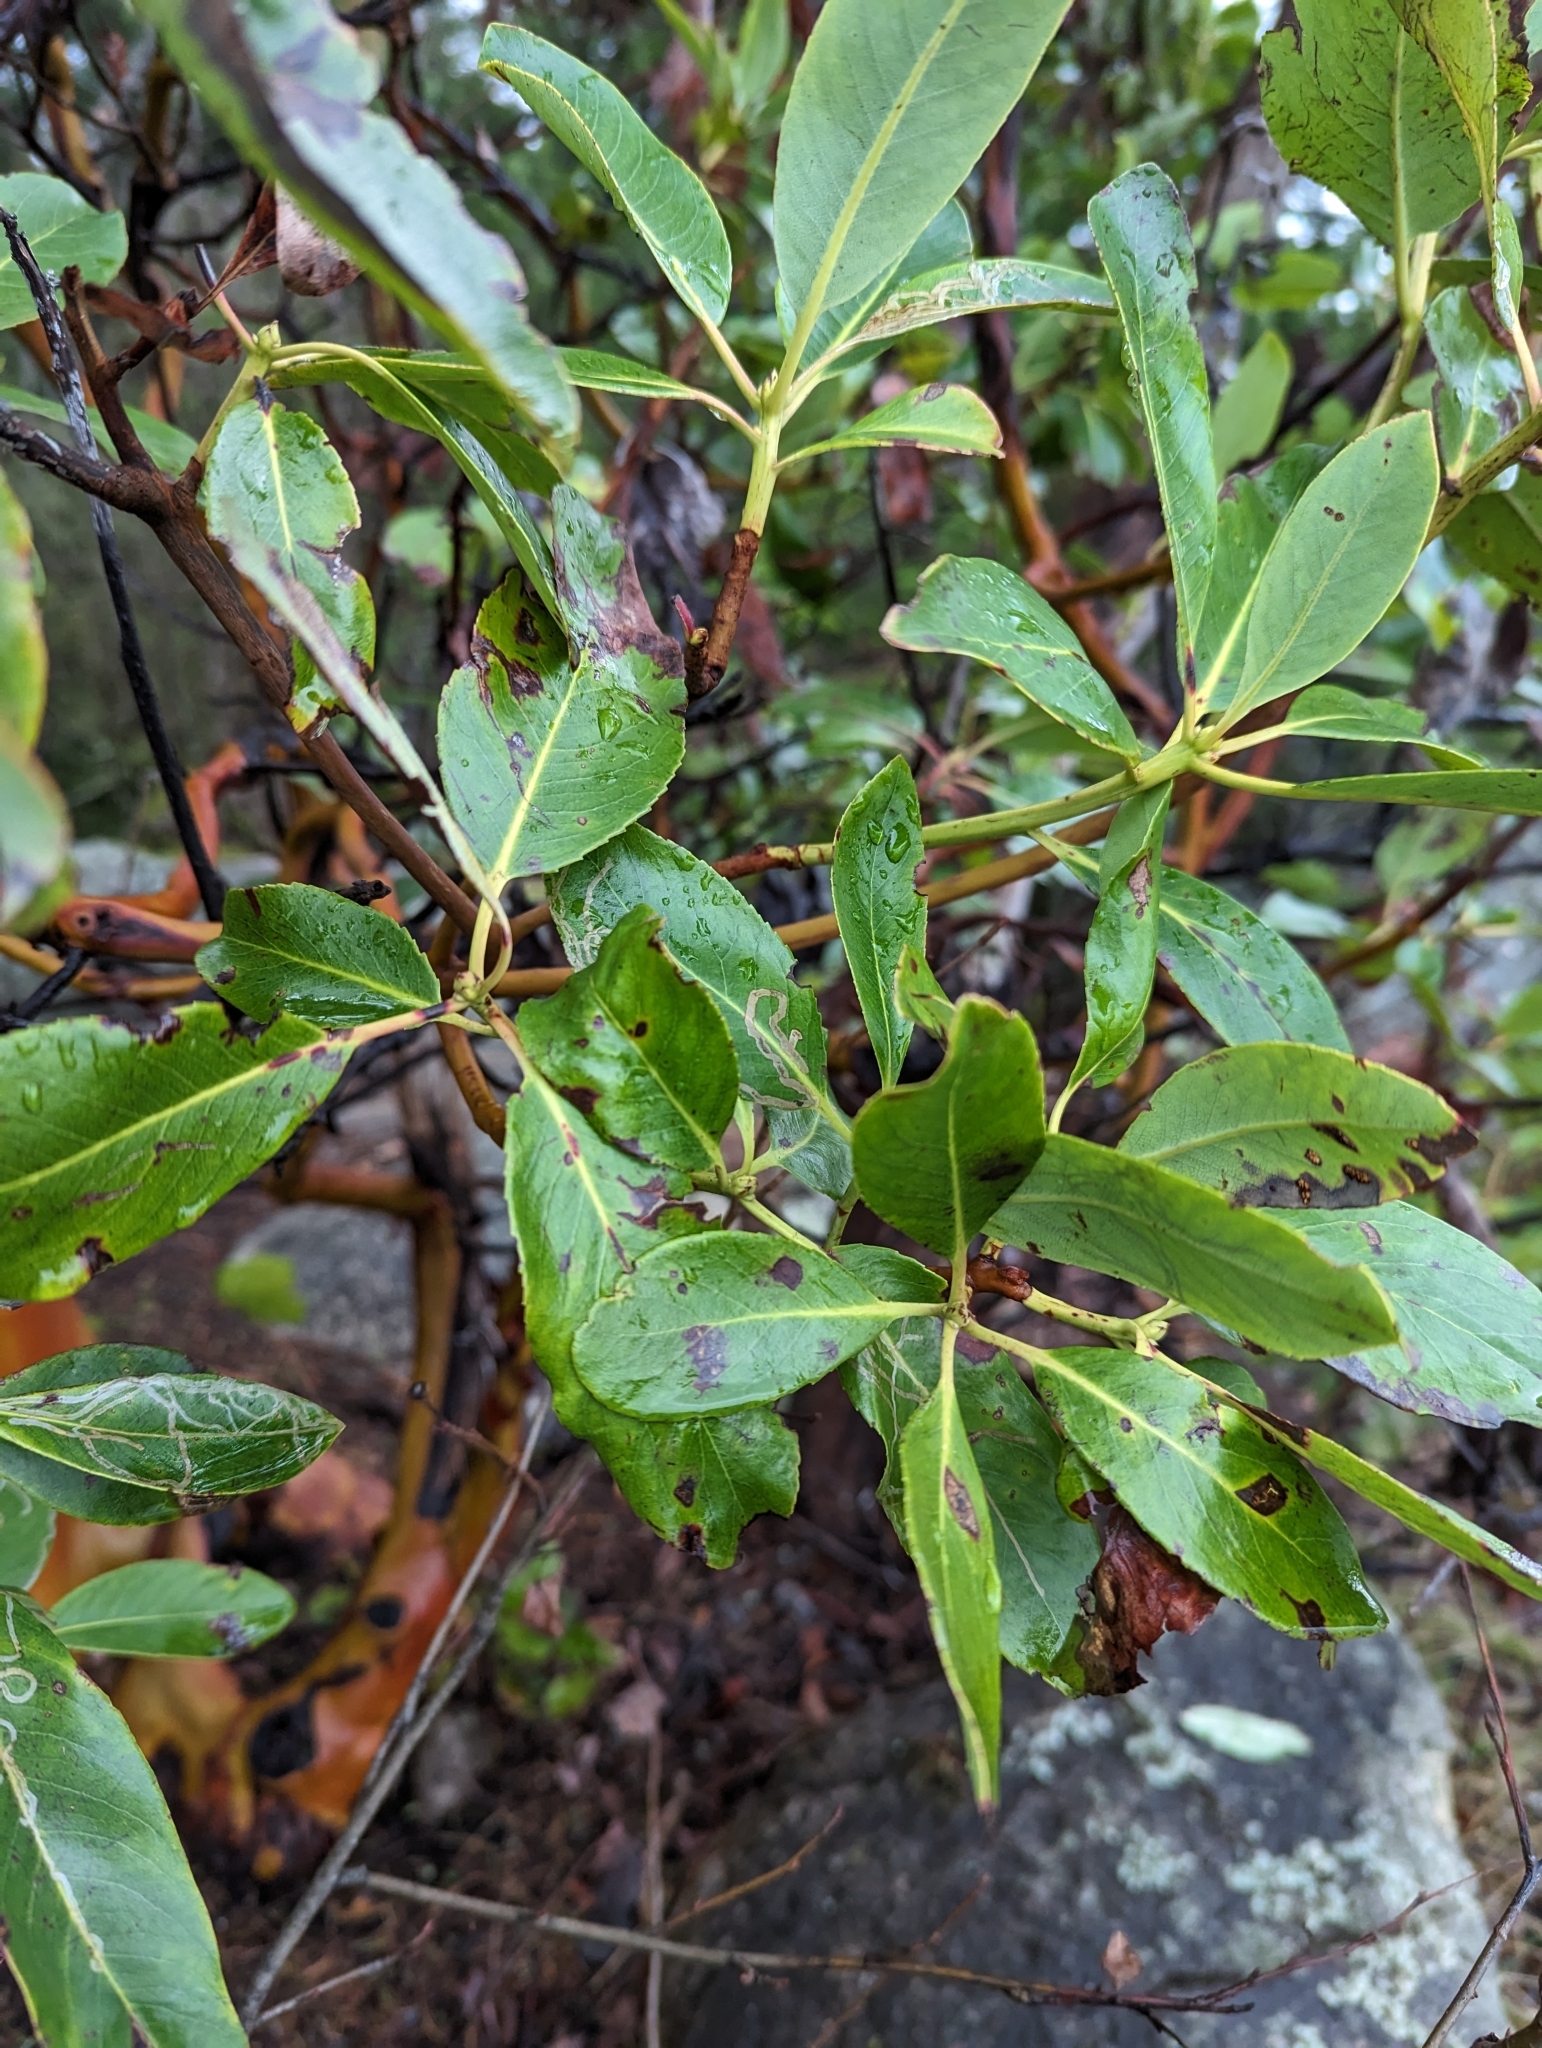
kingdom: Plantae
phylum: Tracheophyta
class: Magnoliopsida
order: Ericales
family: Ericaceae
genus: Arbutus
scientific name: Arbutus menziesii
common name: Pacific madrone
